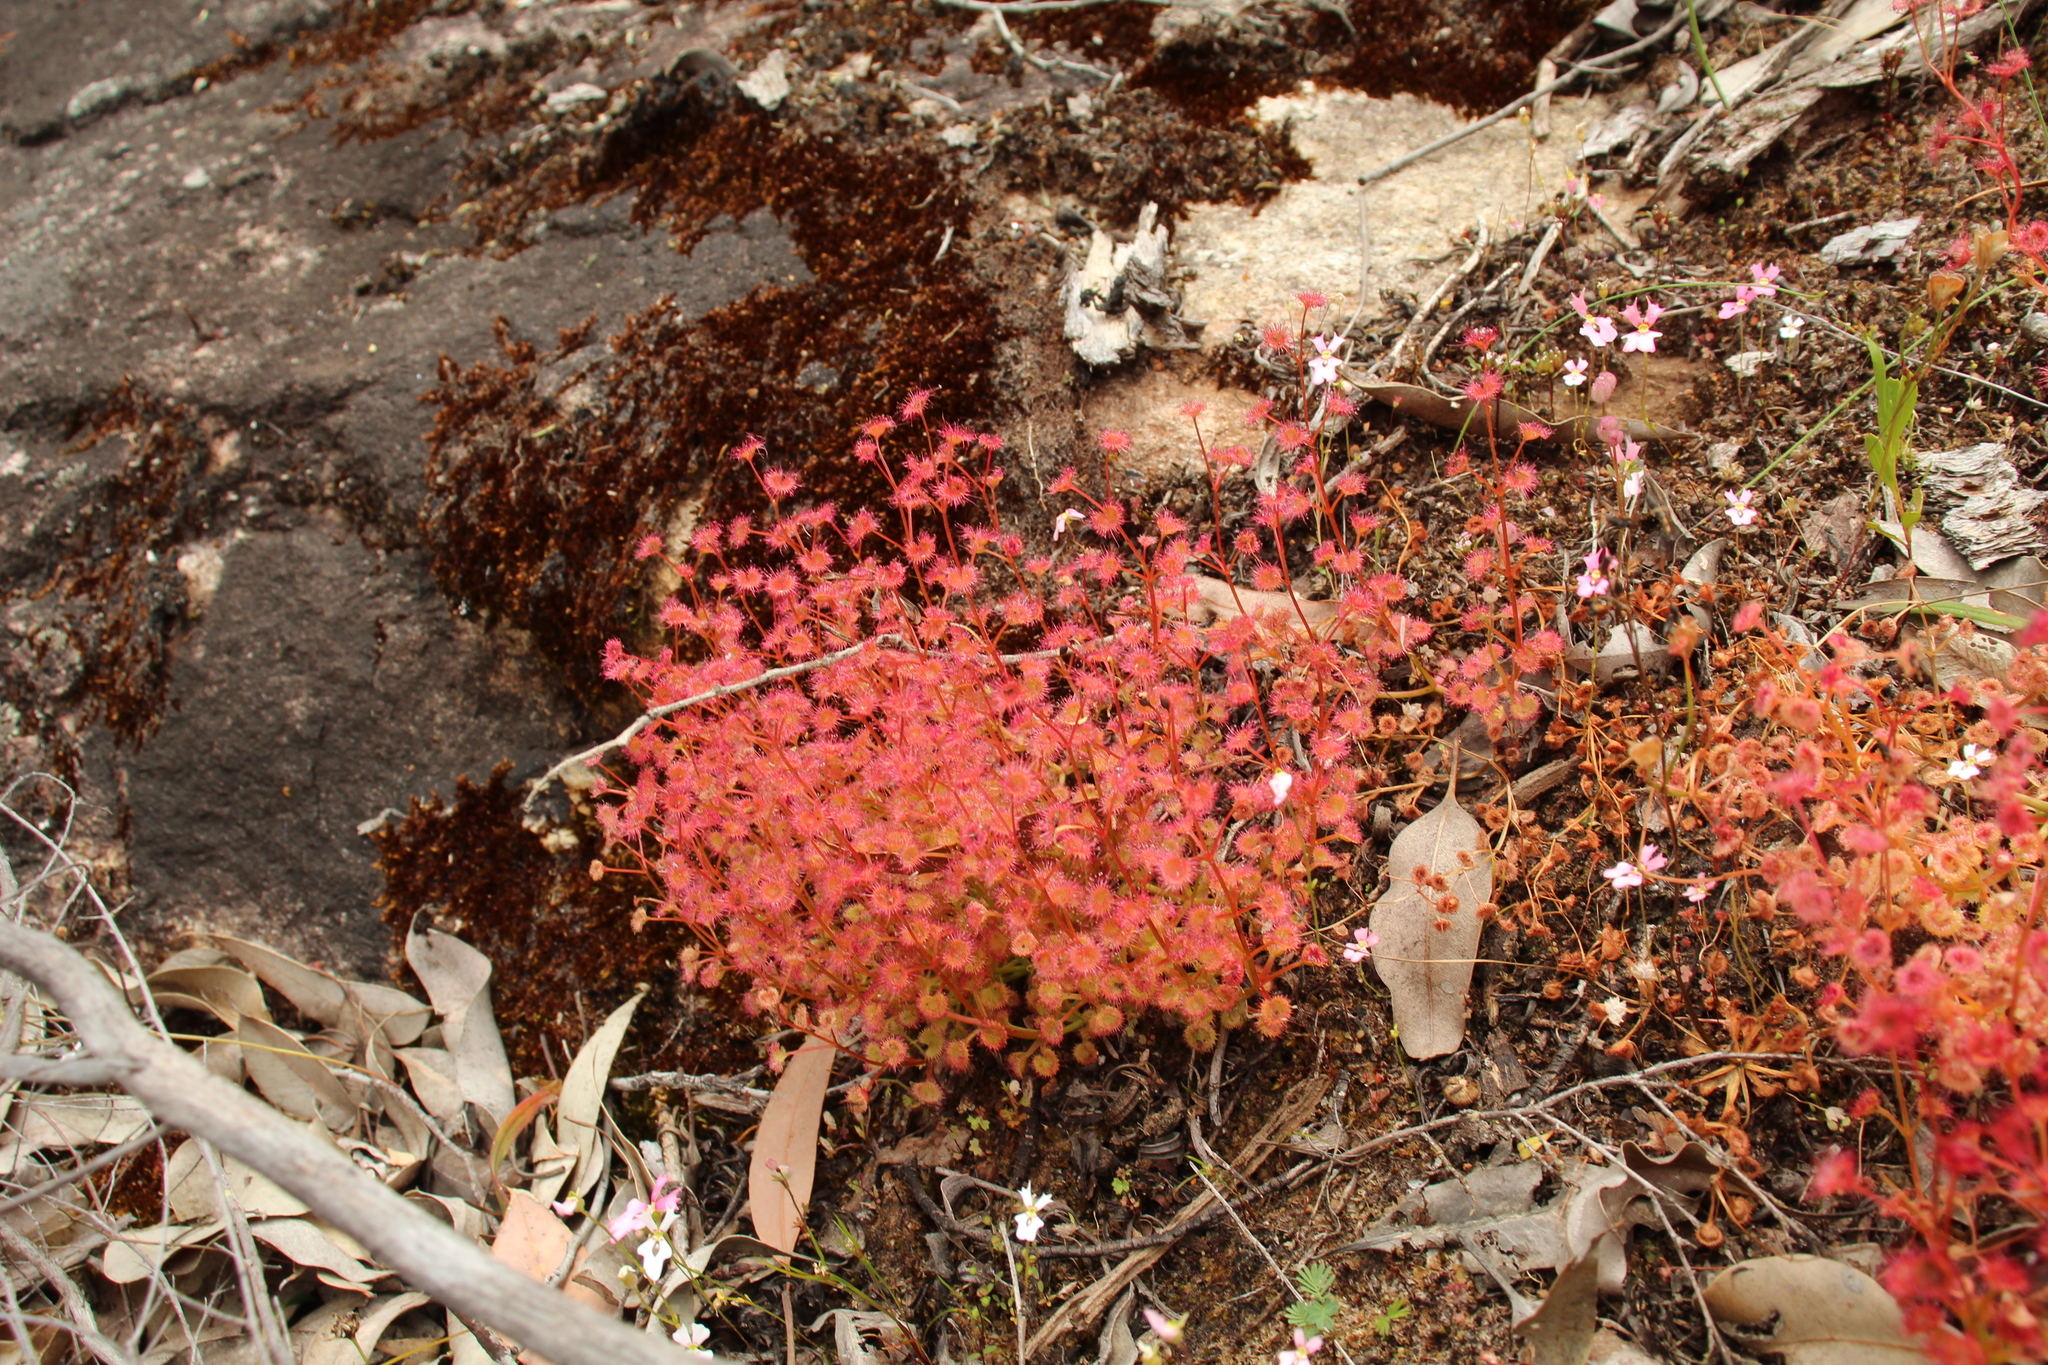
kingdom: Plantae
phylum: Tracheophyta
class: Magnoliopsida
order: Caryophyllales
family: Droseraceae
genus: Drosera
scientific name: Drosera stolonifera
